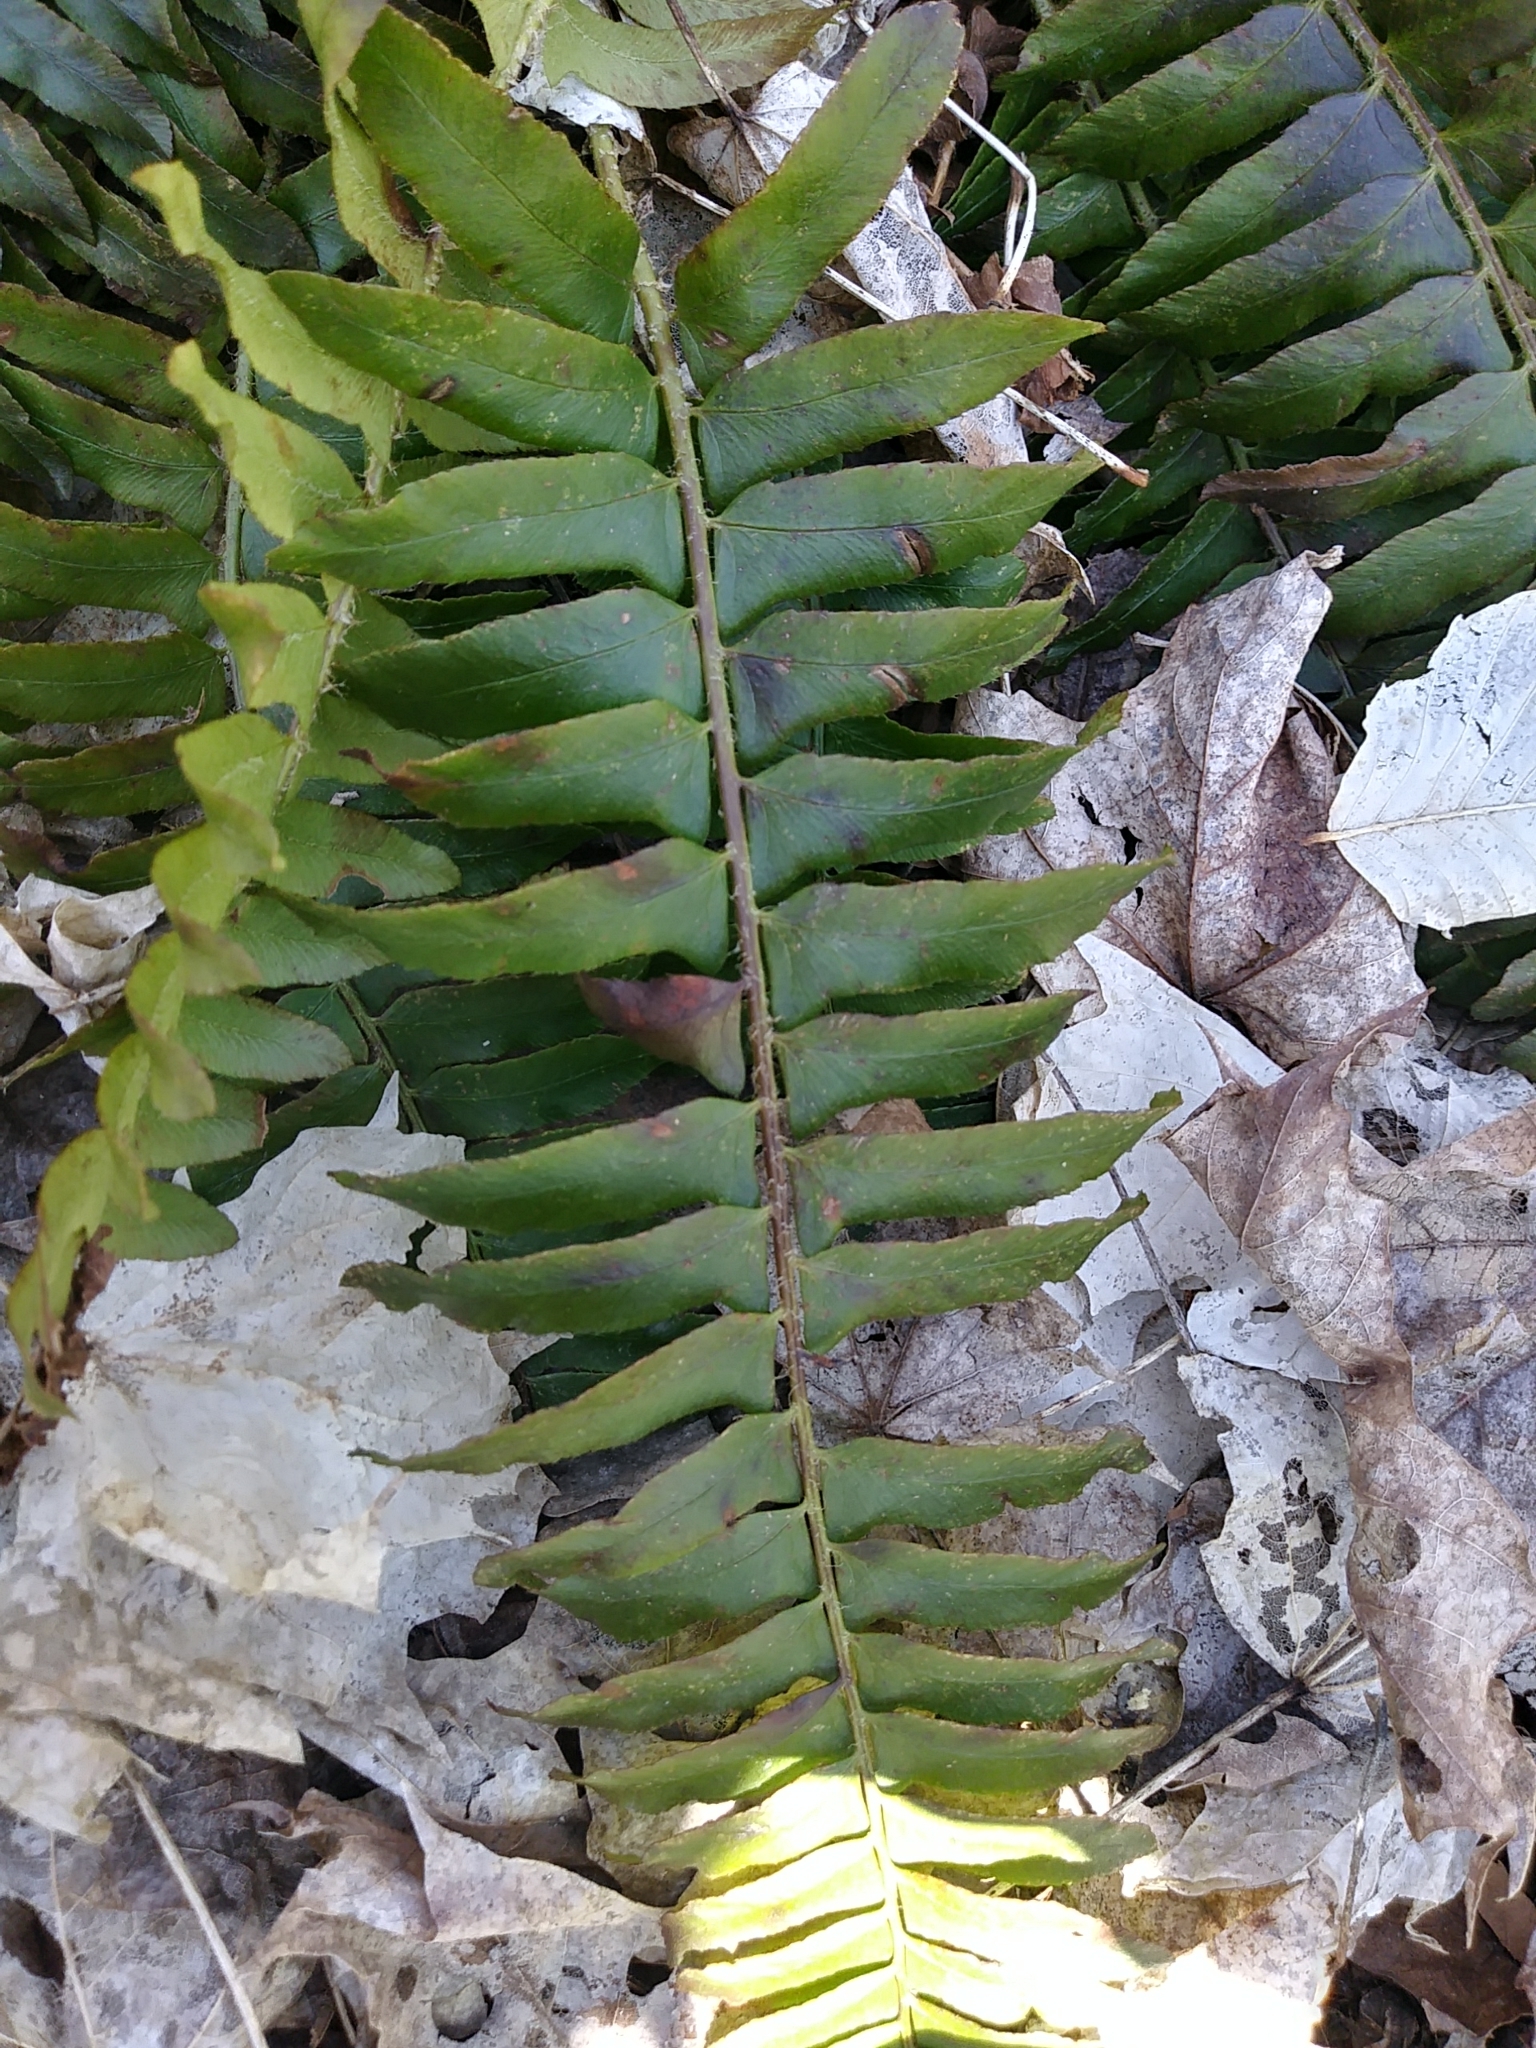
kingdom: Plantae
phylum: Tracheophyta
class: Polypodiopsida
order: Polypodiales
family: Dryopteridaceae
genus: Polystichum
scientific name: Polystichum acrostichoides
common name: Christmas fern
